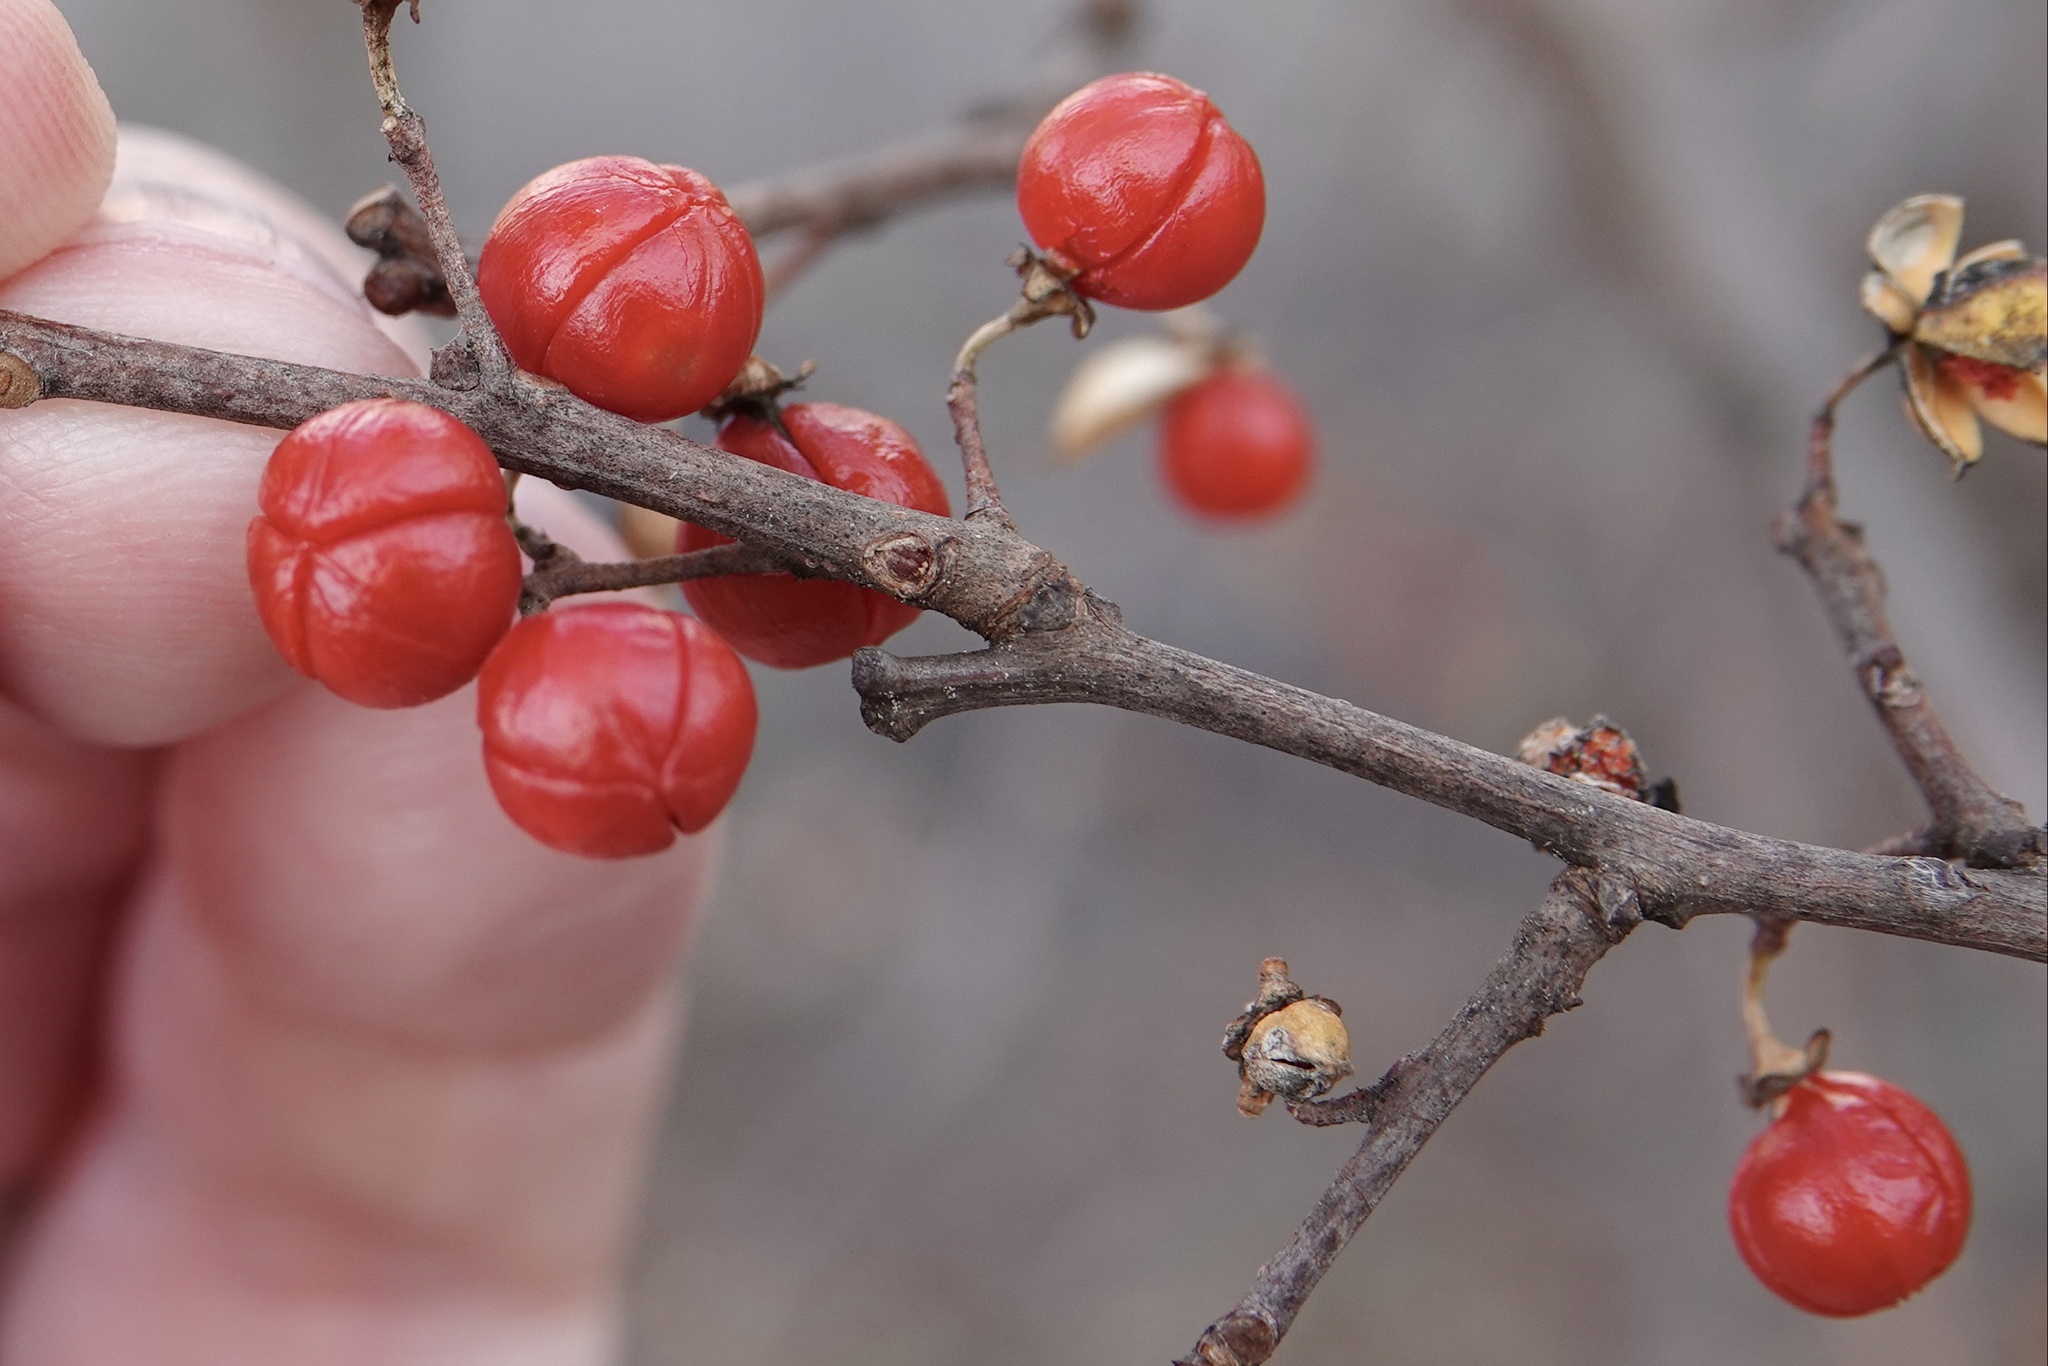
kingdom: Plantae
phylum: Tracheophyta
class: Magnoliopsida
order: Celastrales
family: Celastraceae
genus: Celastrus
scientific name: Celastrus orbiculatus
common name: Oriental bittersweet
